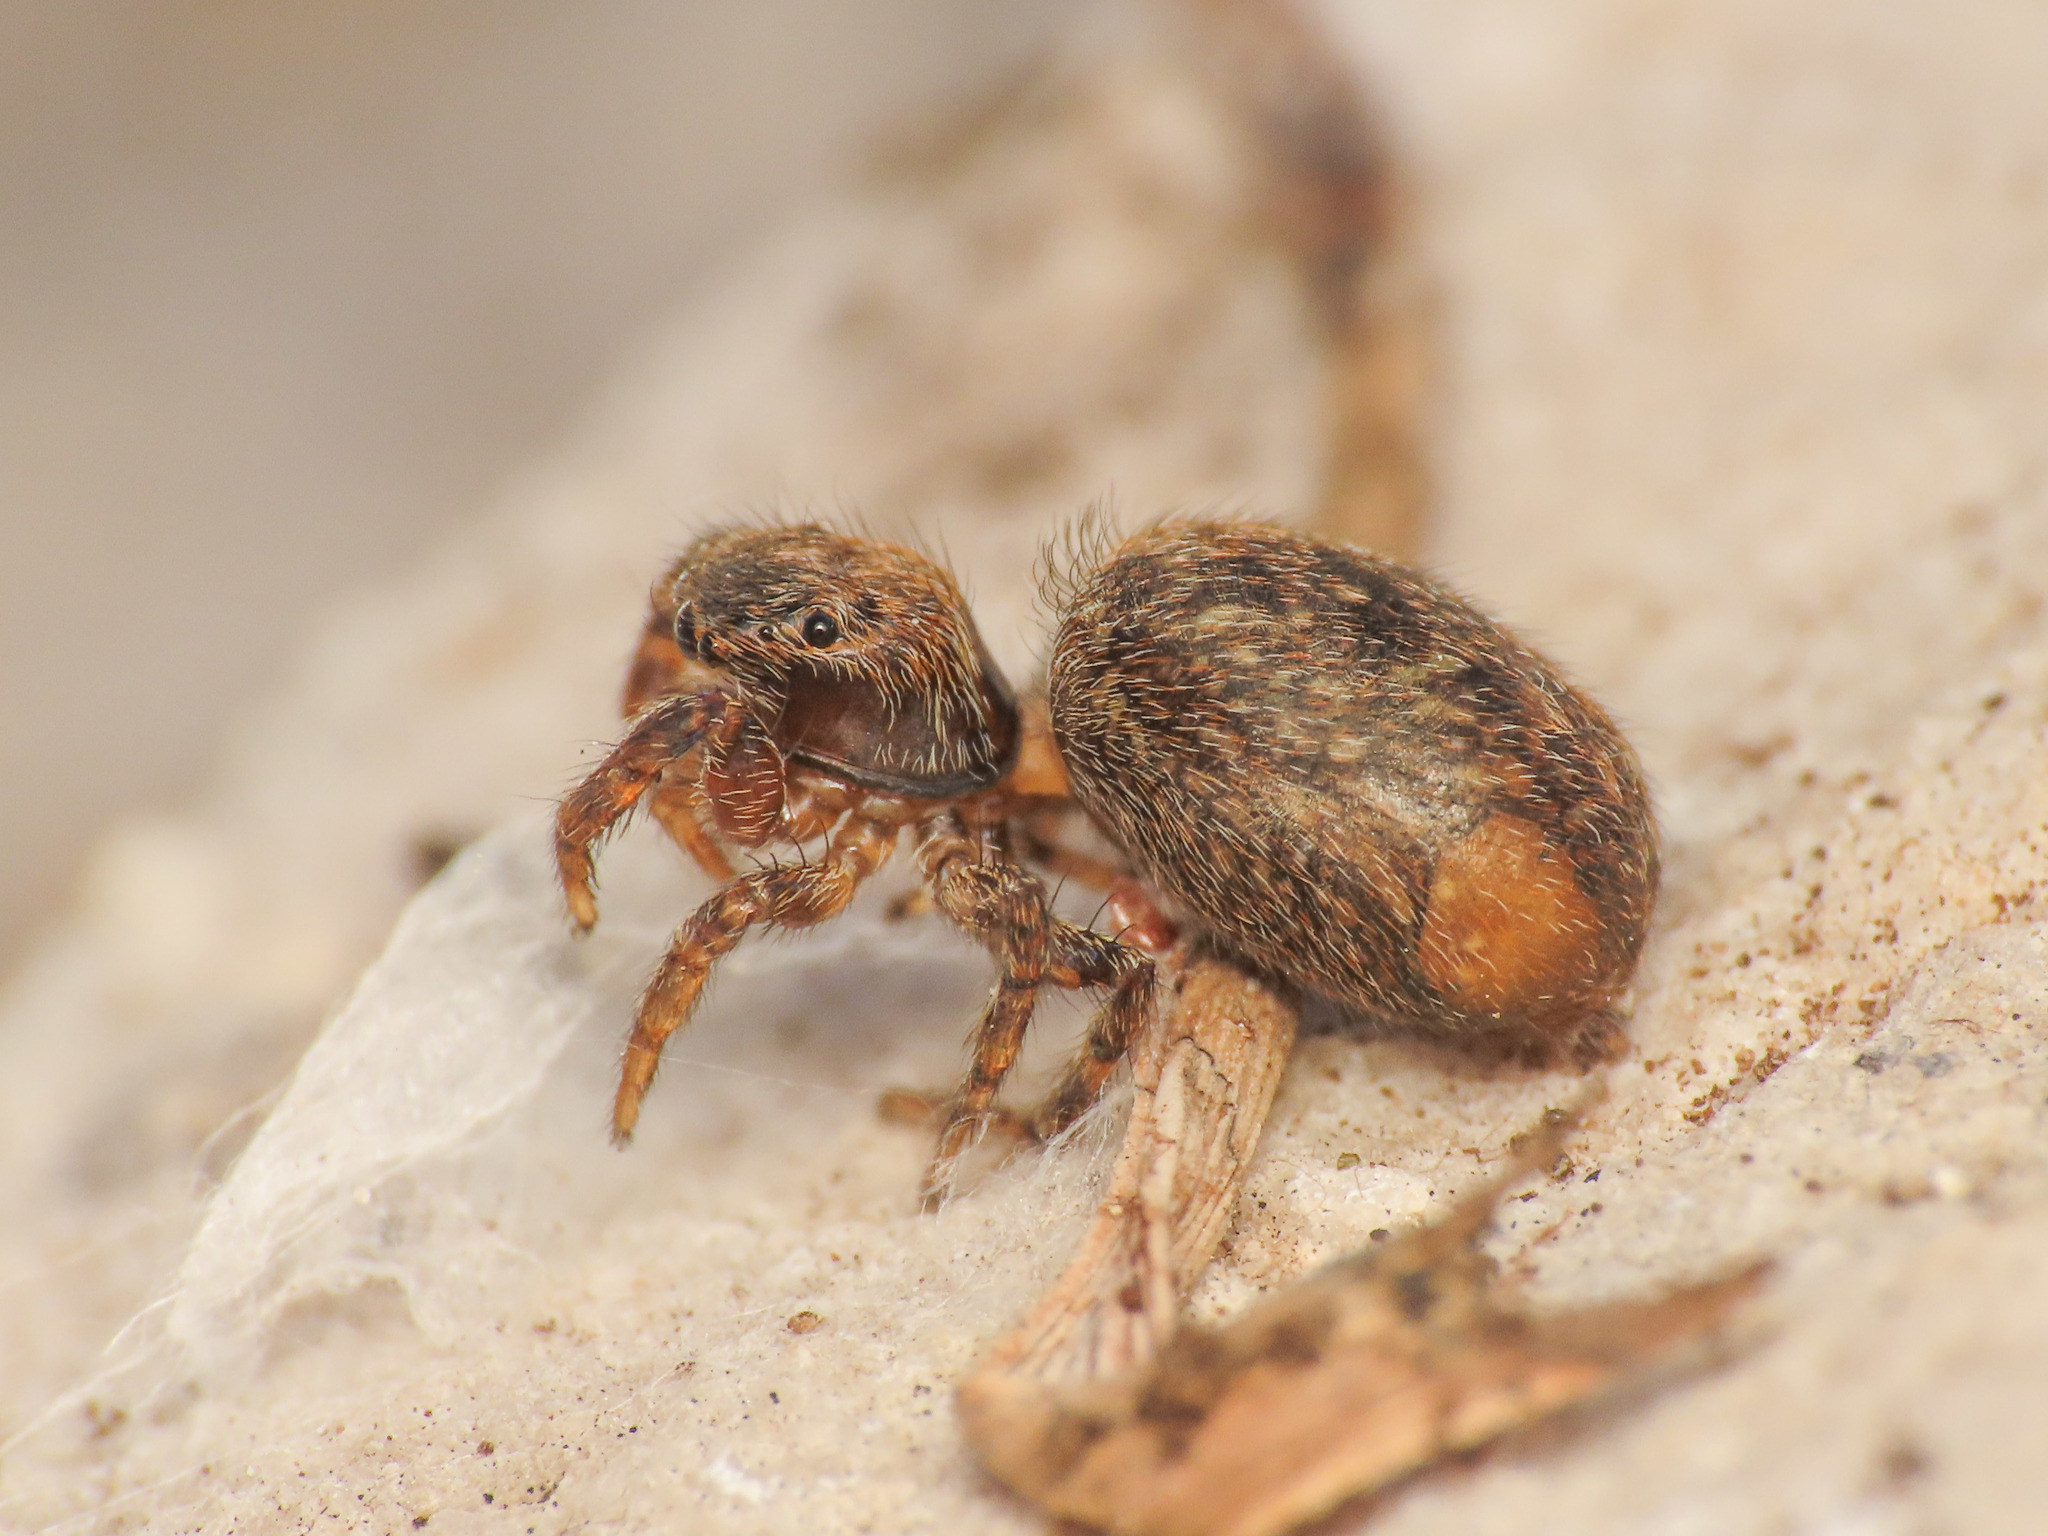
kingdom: Animalia
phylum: Arthropoda
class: Arachnida
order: Araneae
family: Salticidae
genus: Euophrys
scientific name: Euophrys rufibarbis
